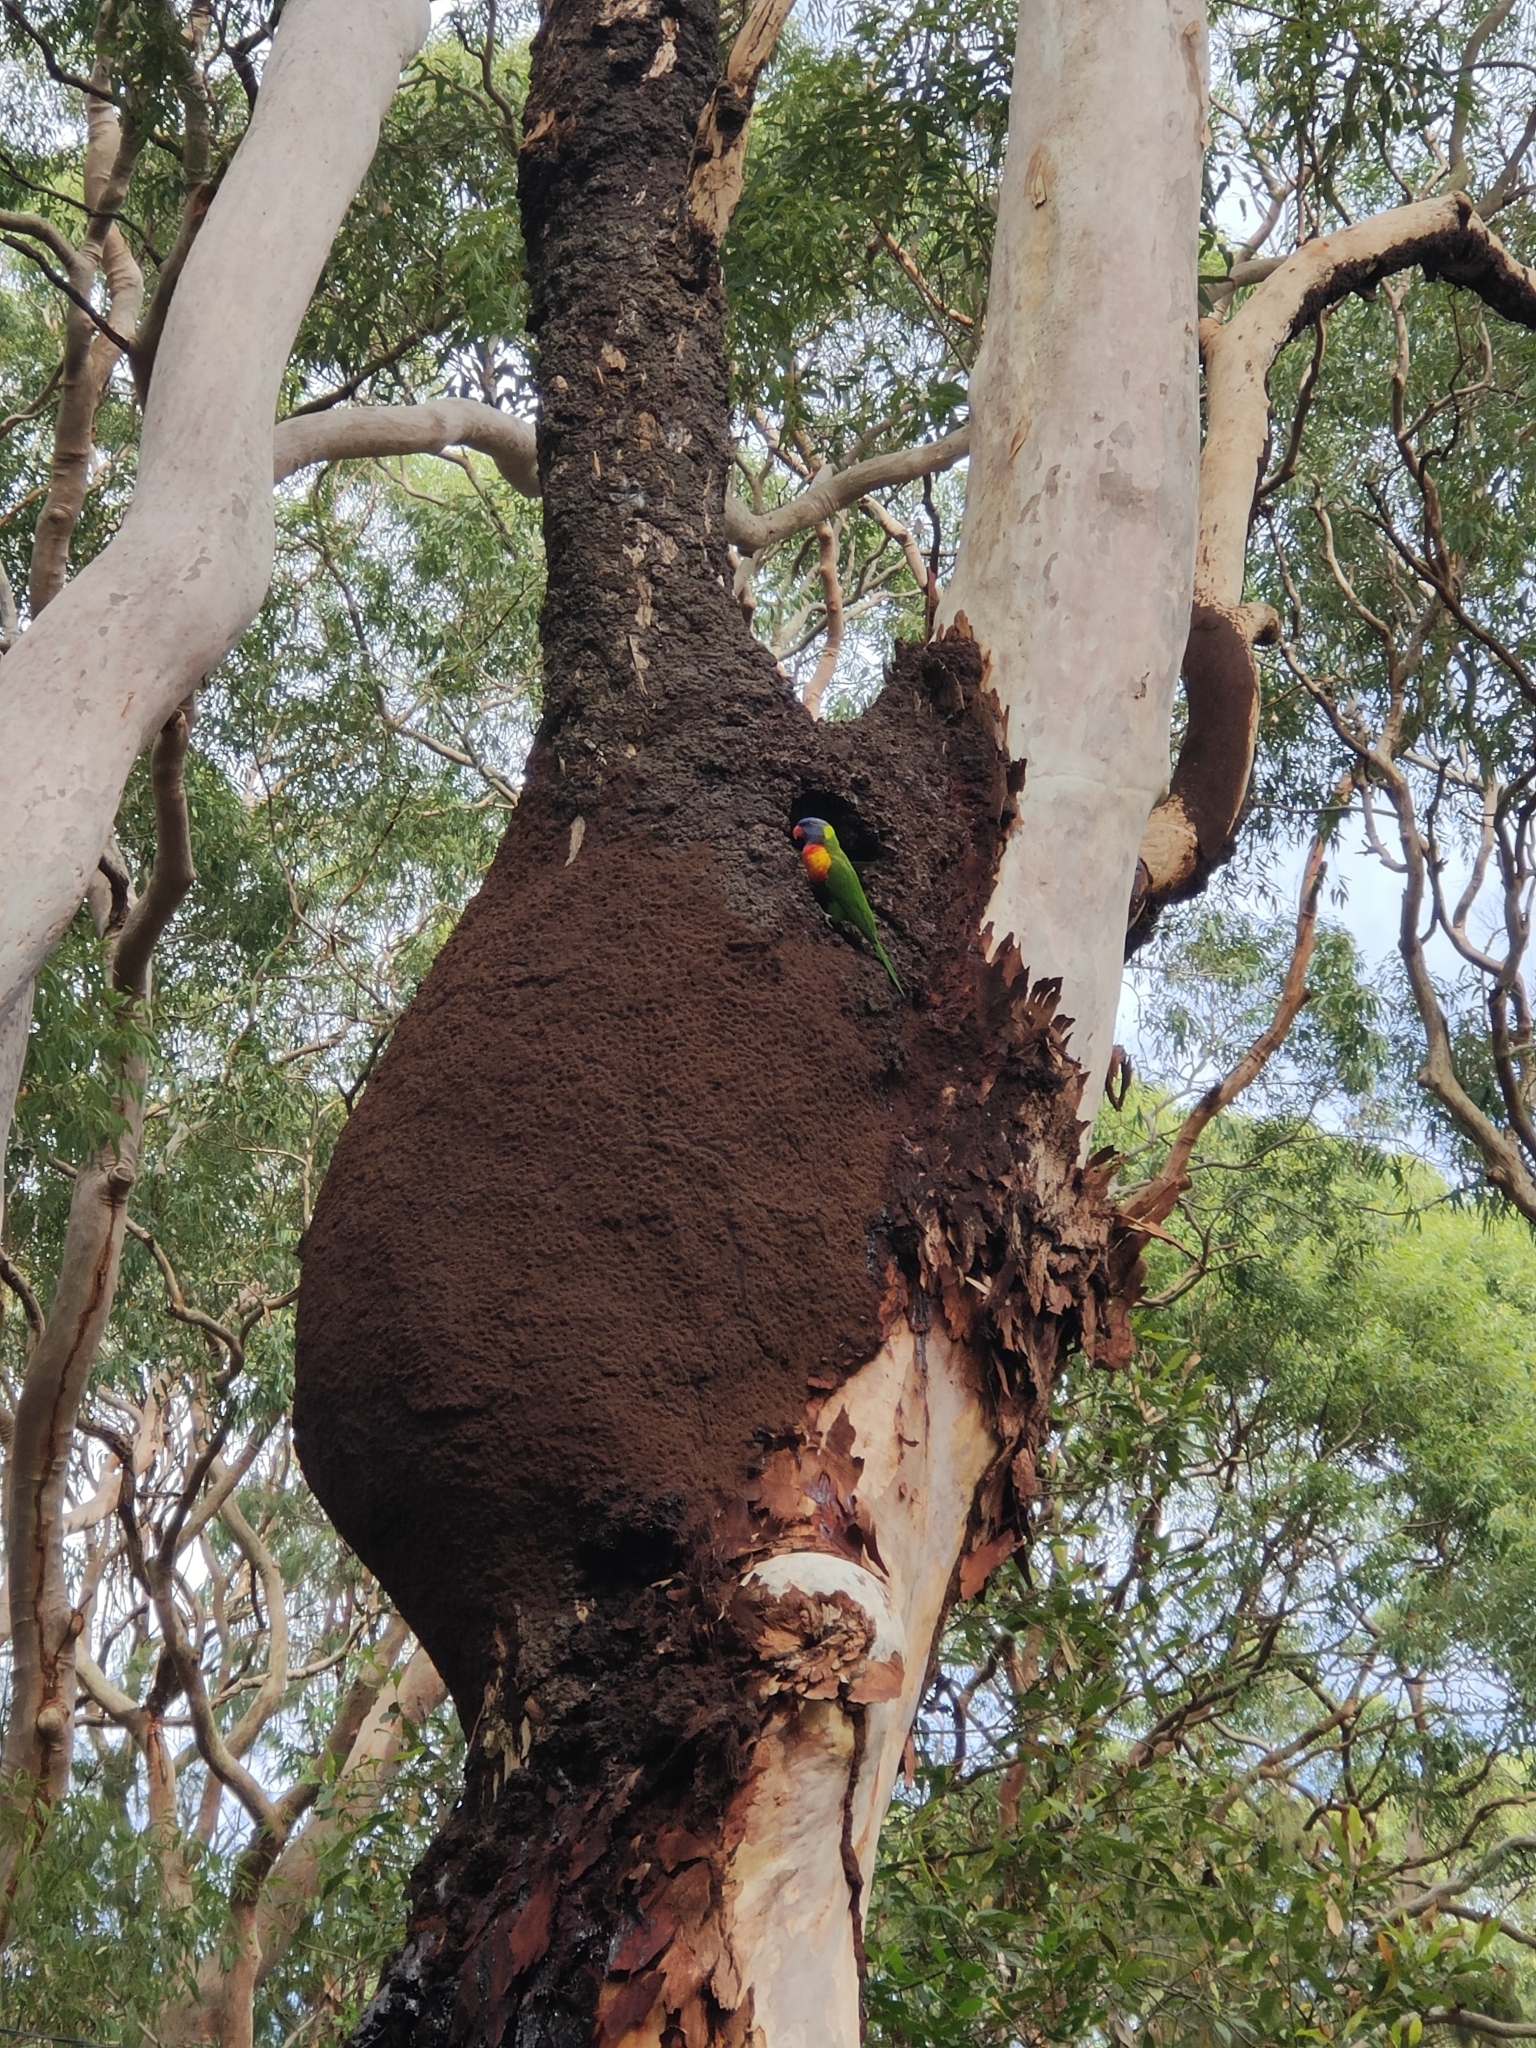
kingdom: Animalia
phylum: Chordata
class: Aves
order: Psittaciformes
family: Psittacidae
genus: Trichoglossus
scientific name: Trichoglossus haematodus
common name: Coconut lorikeet
